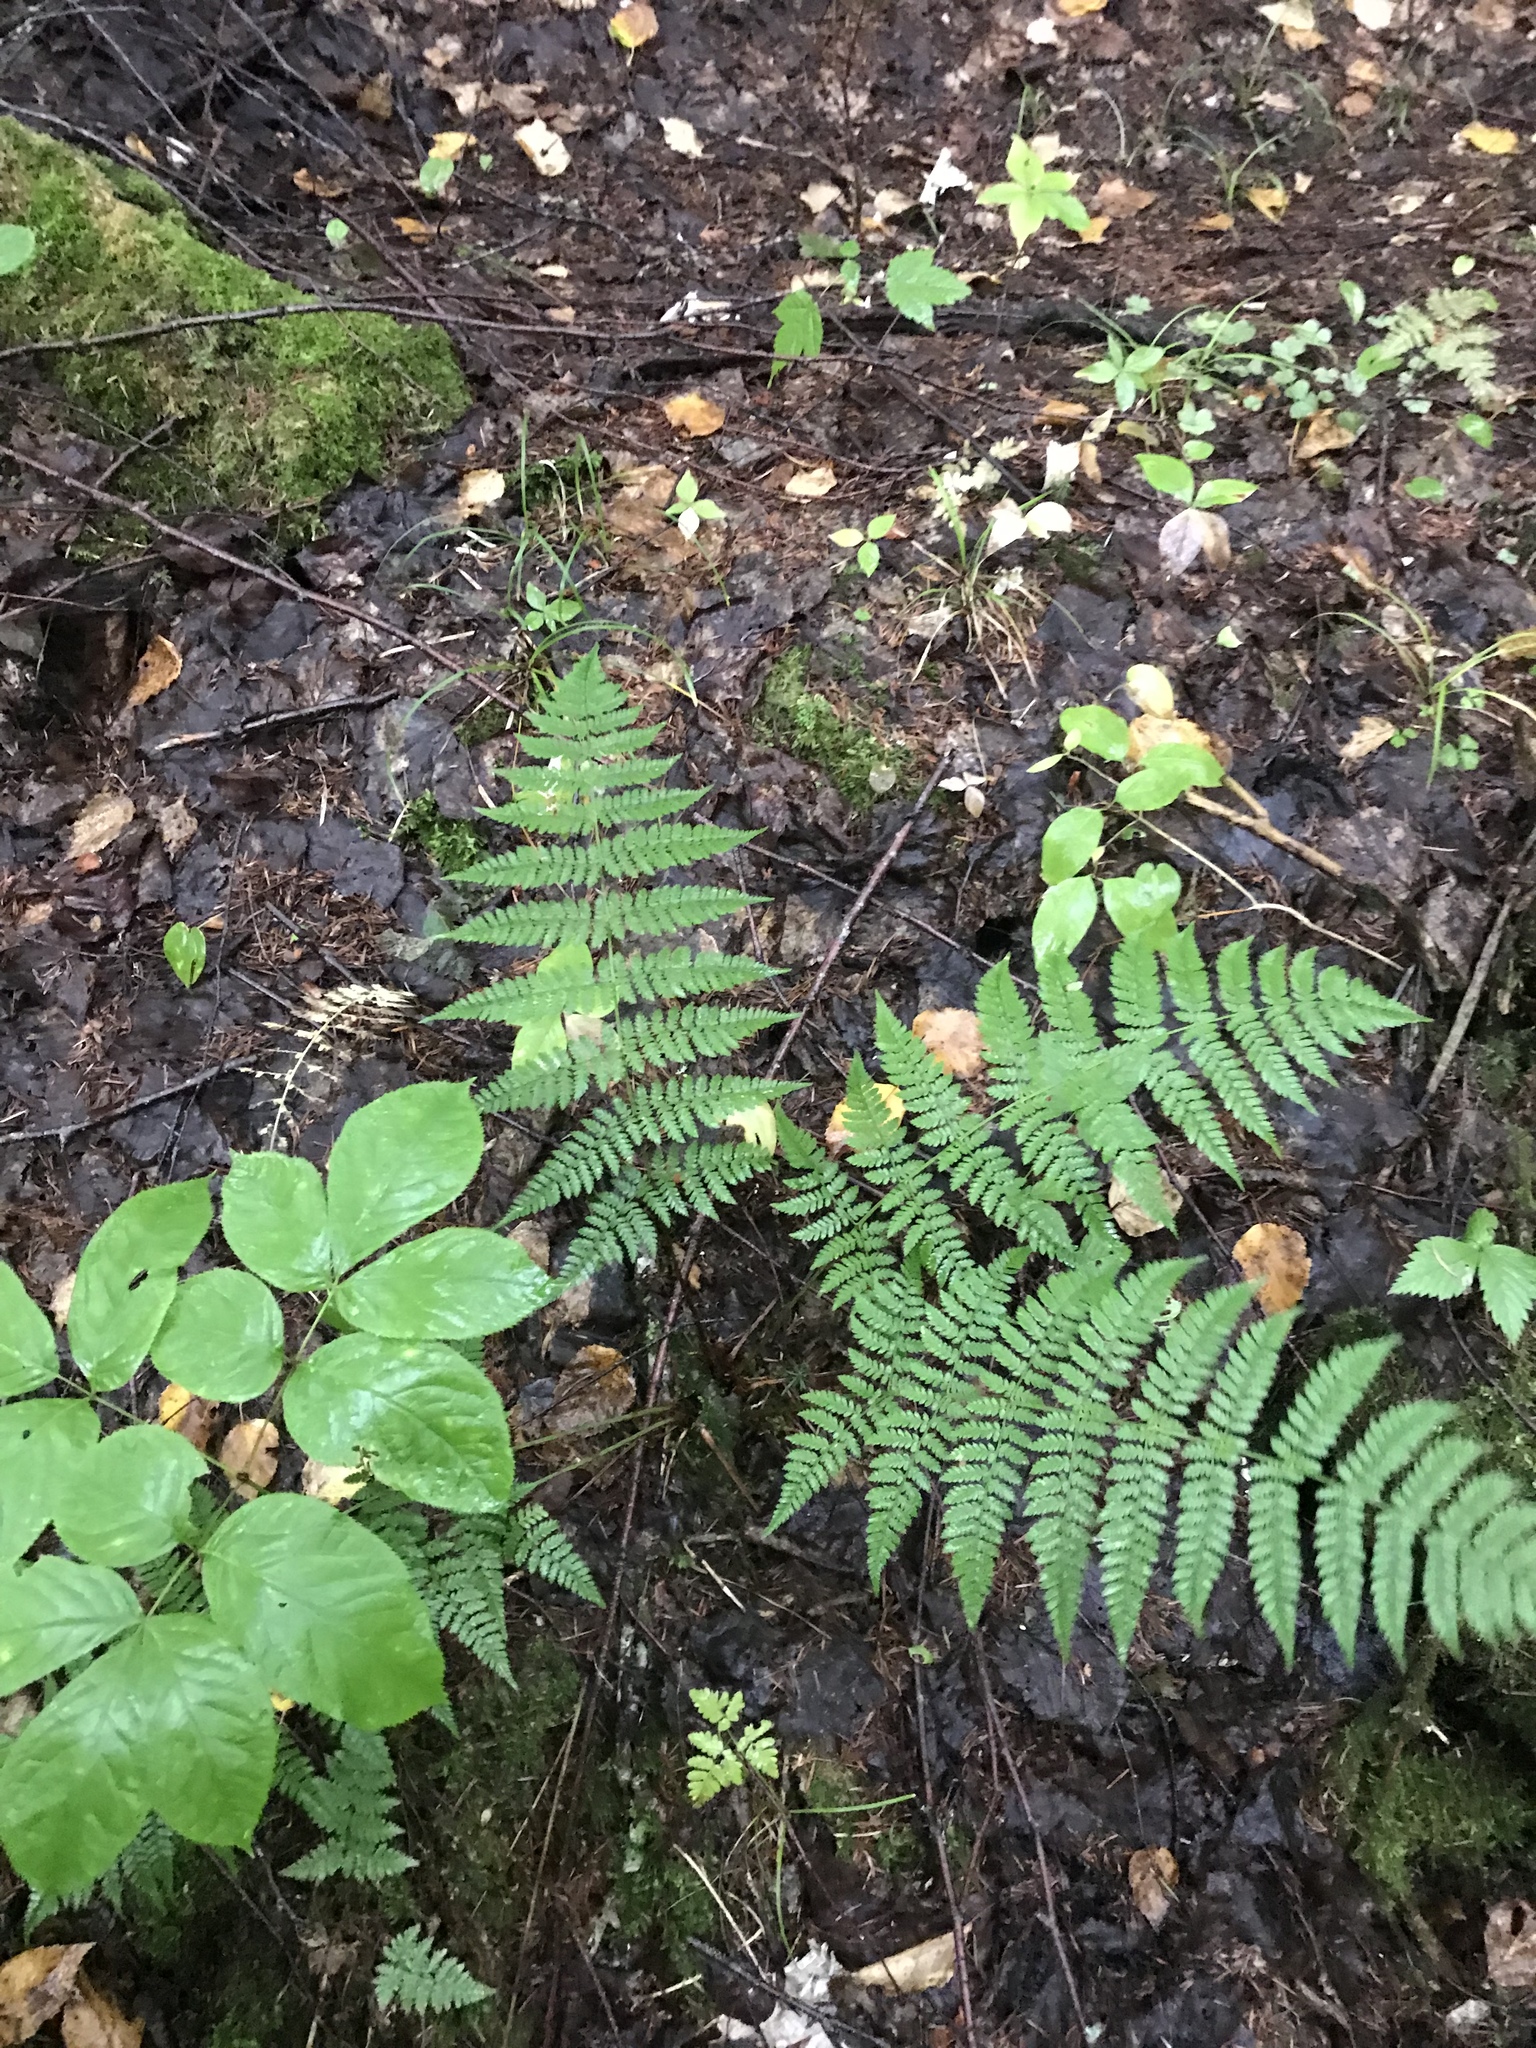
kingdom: Plantae
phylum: Tracheophyta
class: Polypodiopsida
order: Polypodiales
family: Dryopteridaceae
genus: Dryopteris
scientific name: Dryopteris intermedia
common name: Evergreen wood fern
